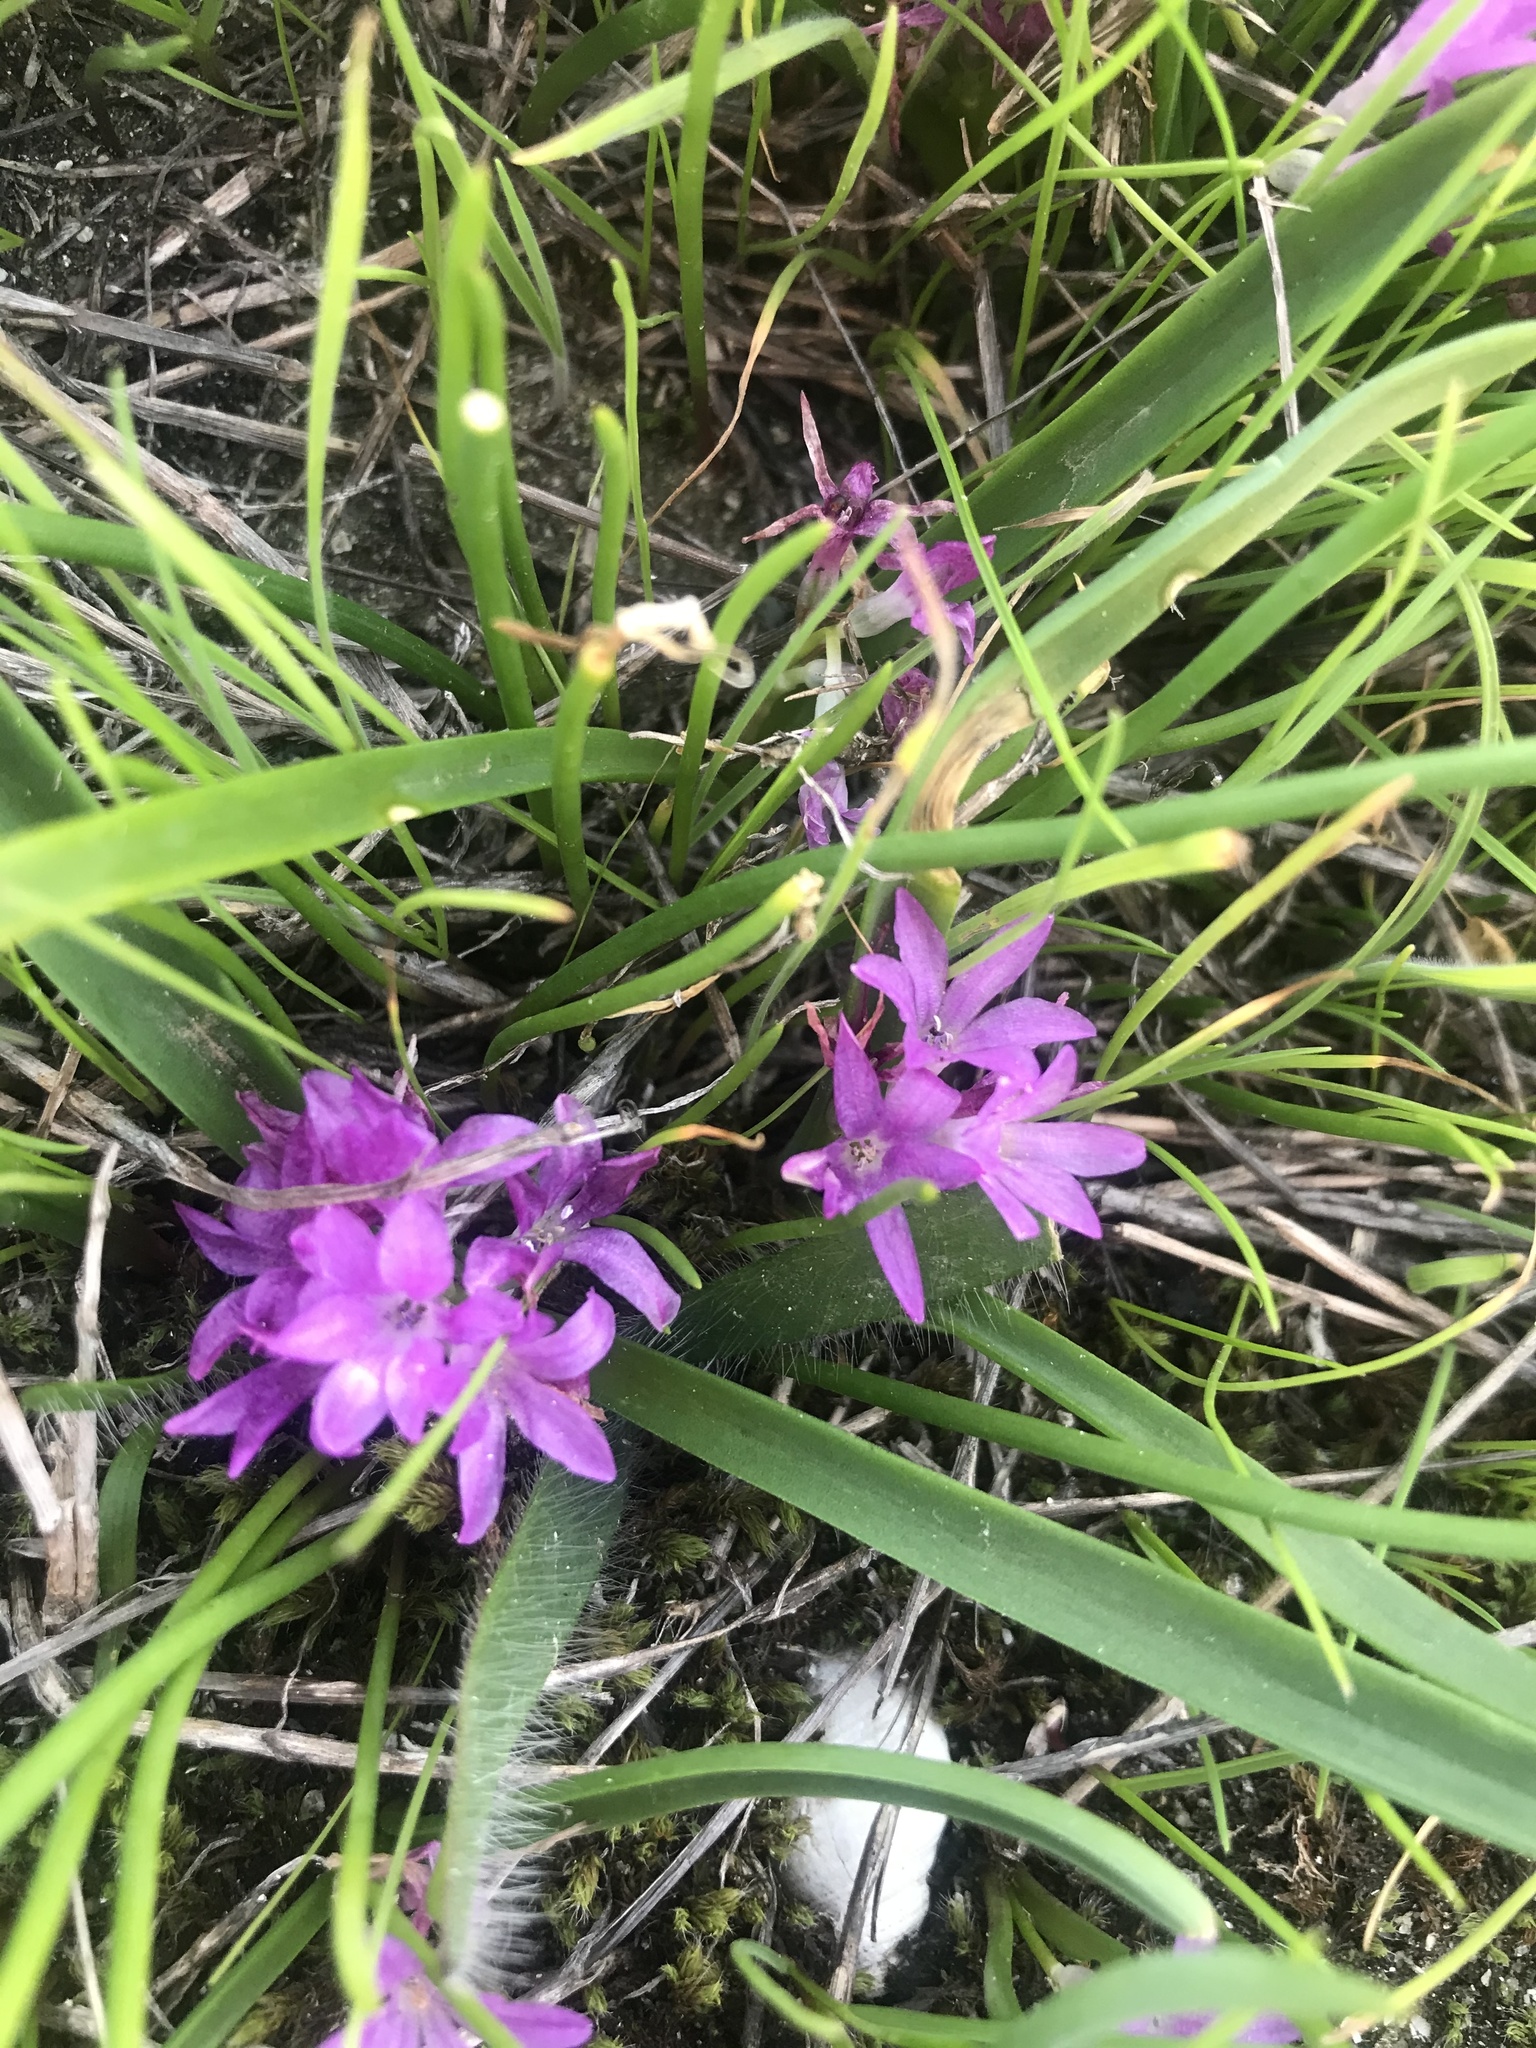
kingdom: Plantae
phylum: Tracheophyta
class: Liliopsida
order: Asparagales
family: Asparagaceae
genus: Lachenalia
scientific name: Lachenalia paucifolia
